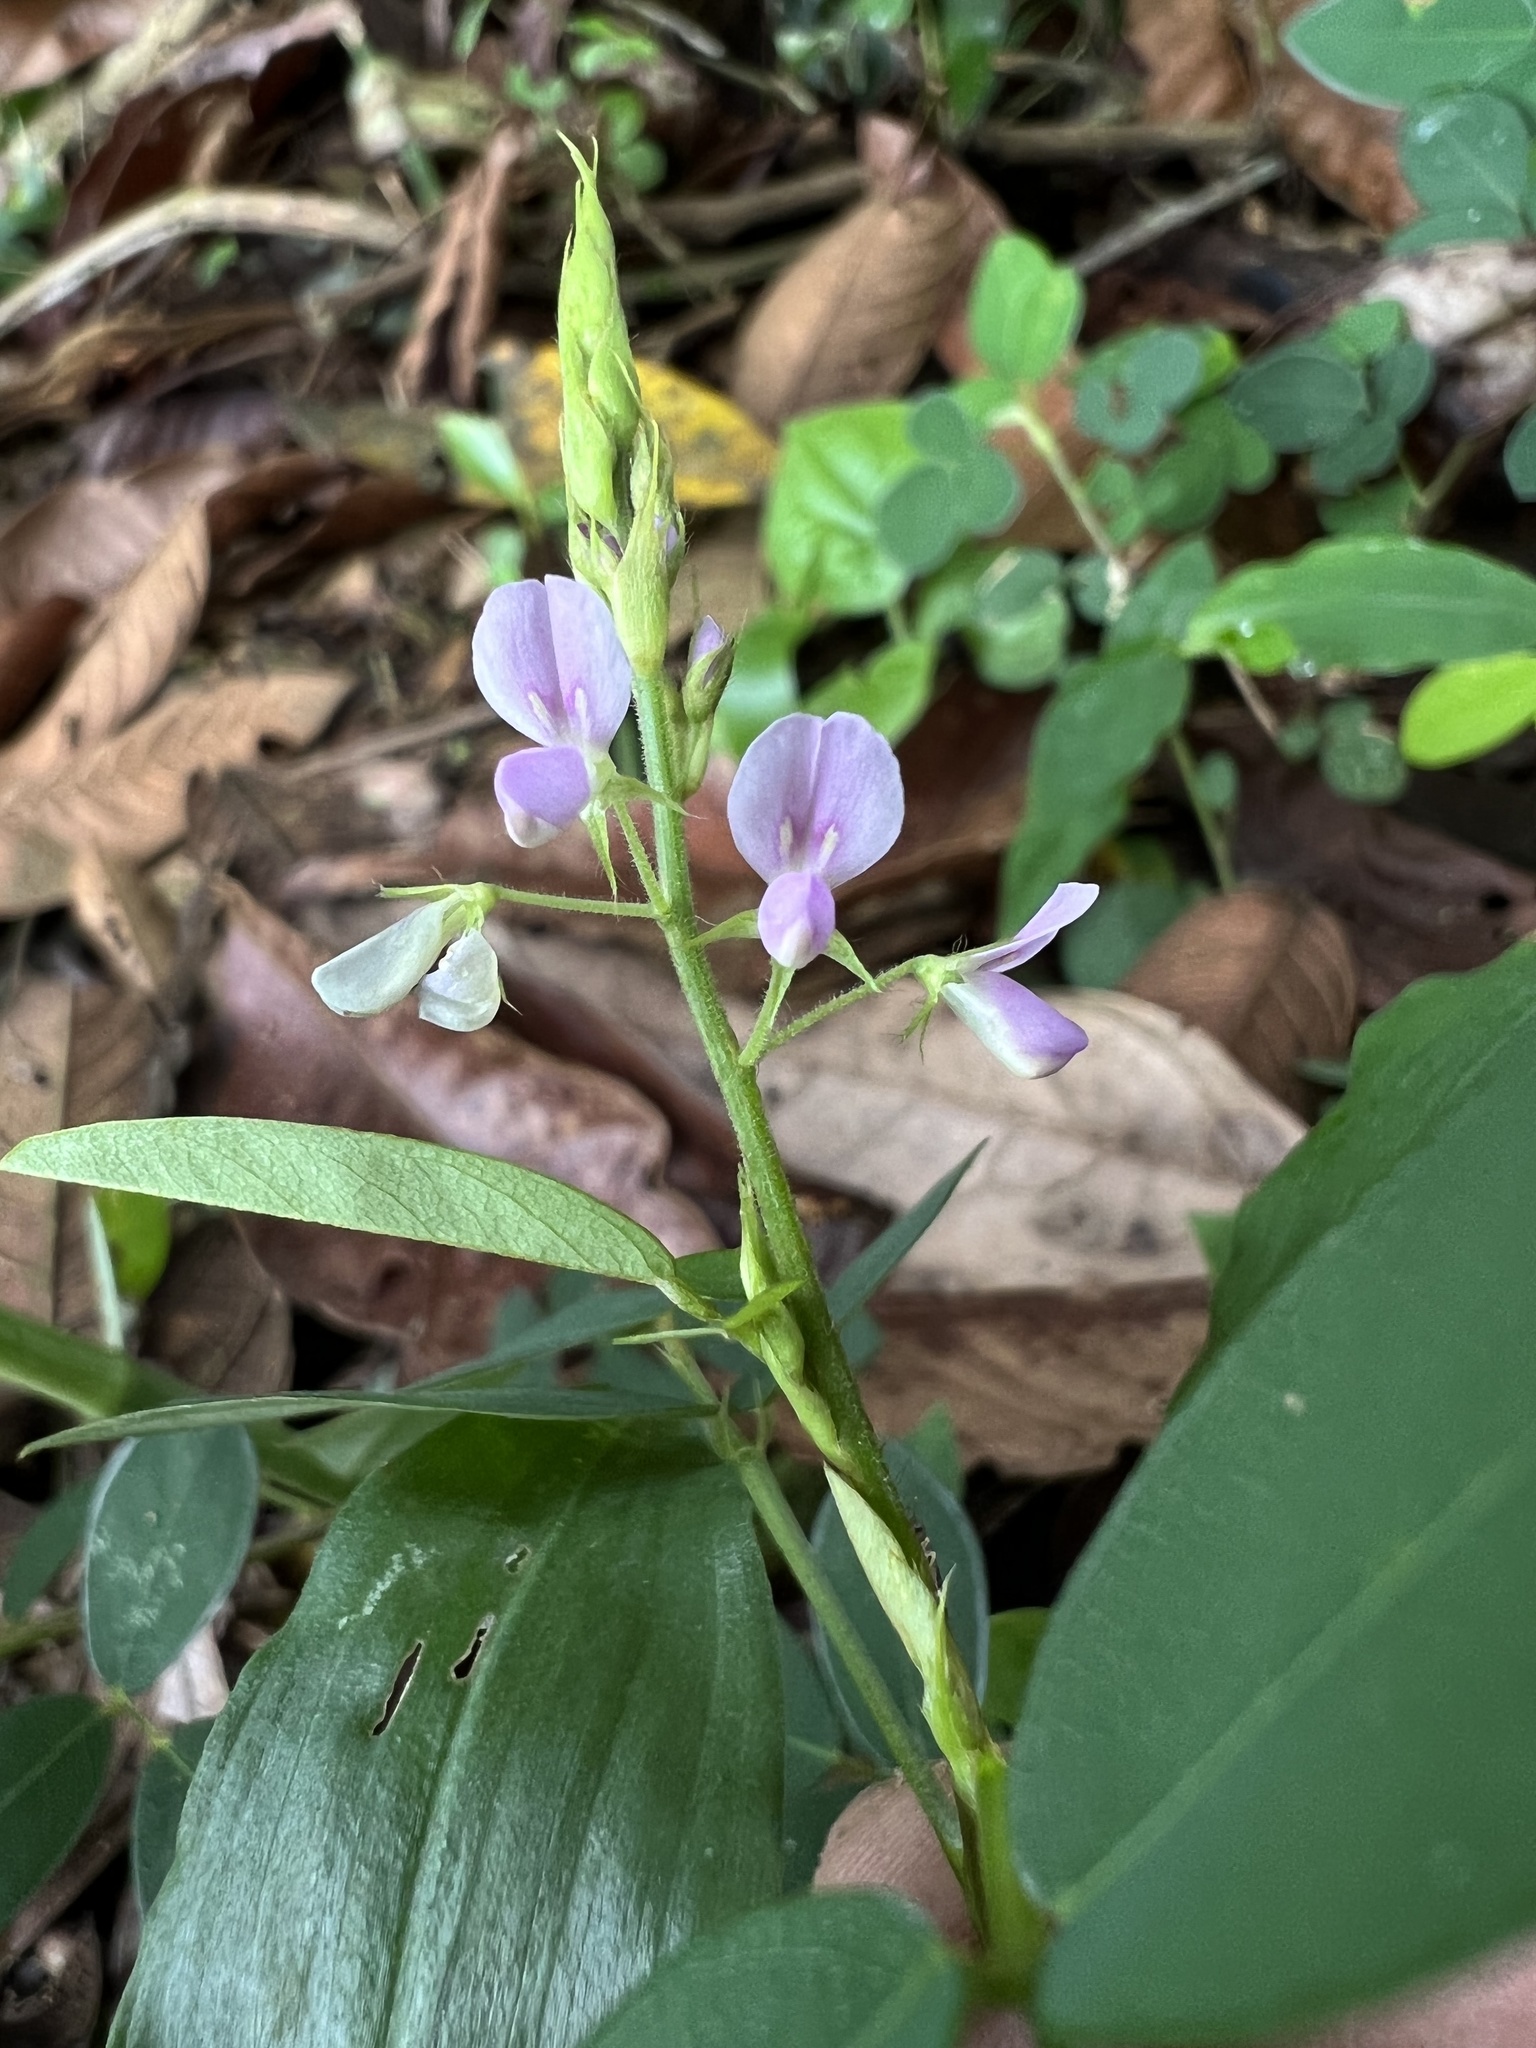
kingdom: Plantae
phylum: Tracheophyta
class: Magnoliopsida
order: Fabales
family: Fabaceae
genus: Desmodium
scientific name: Desmodium uncinatum
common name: Silverleaf desmodium
